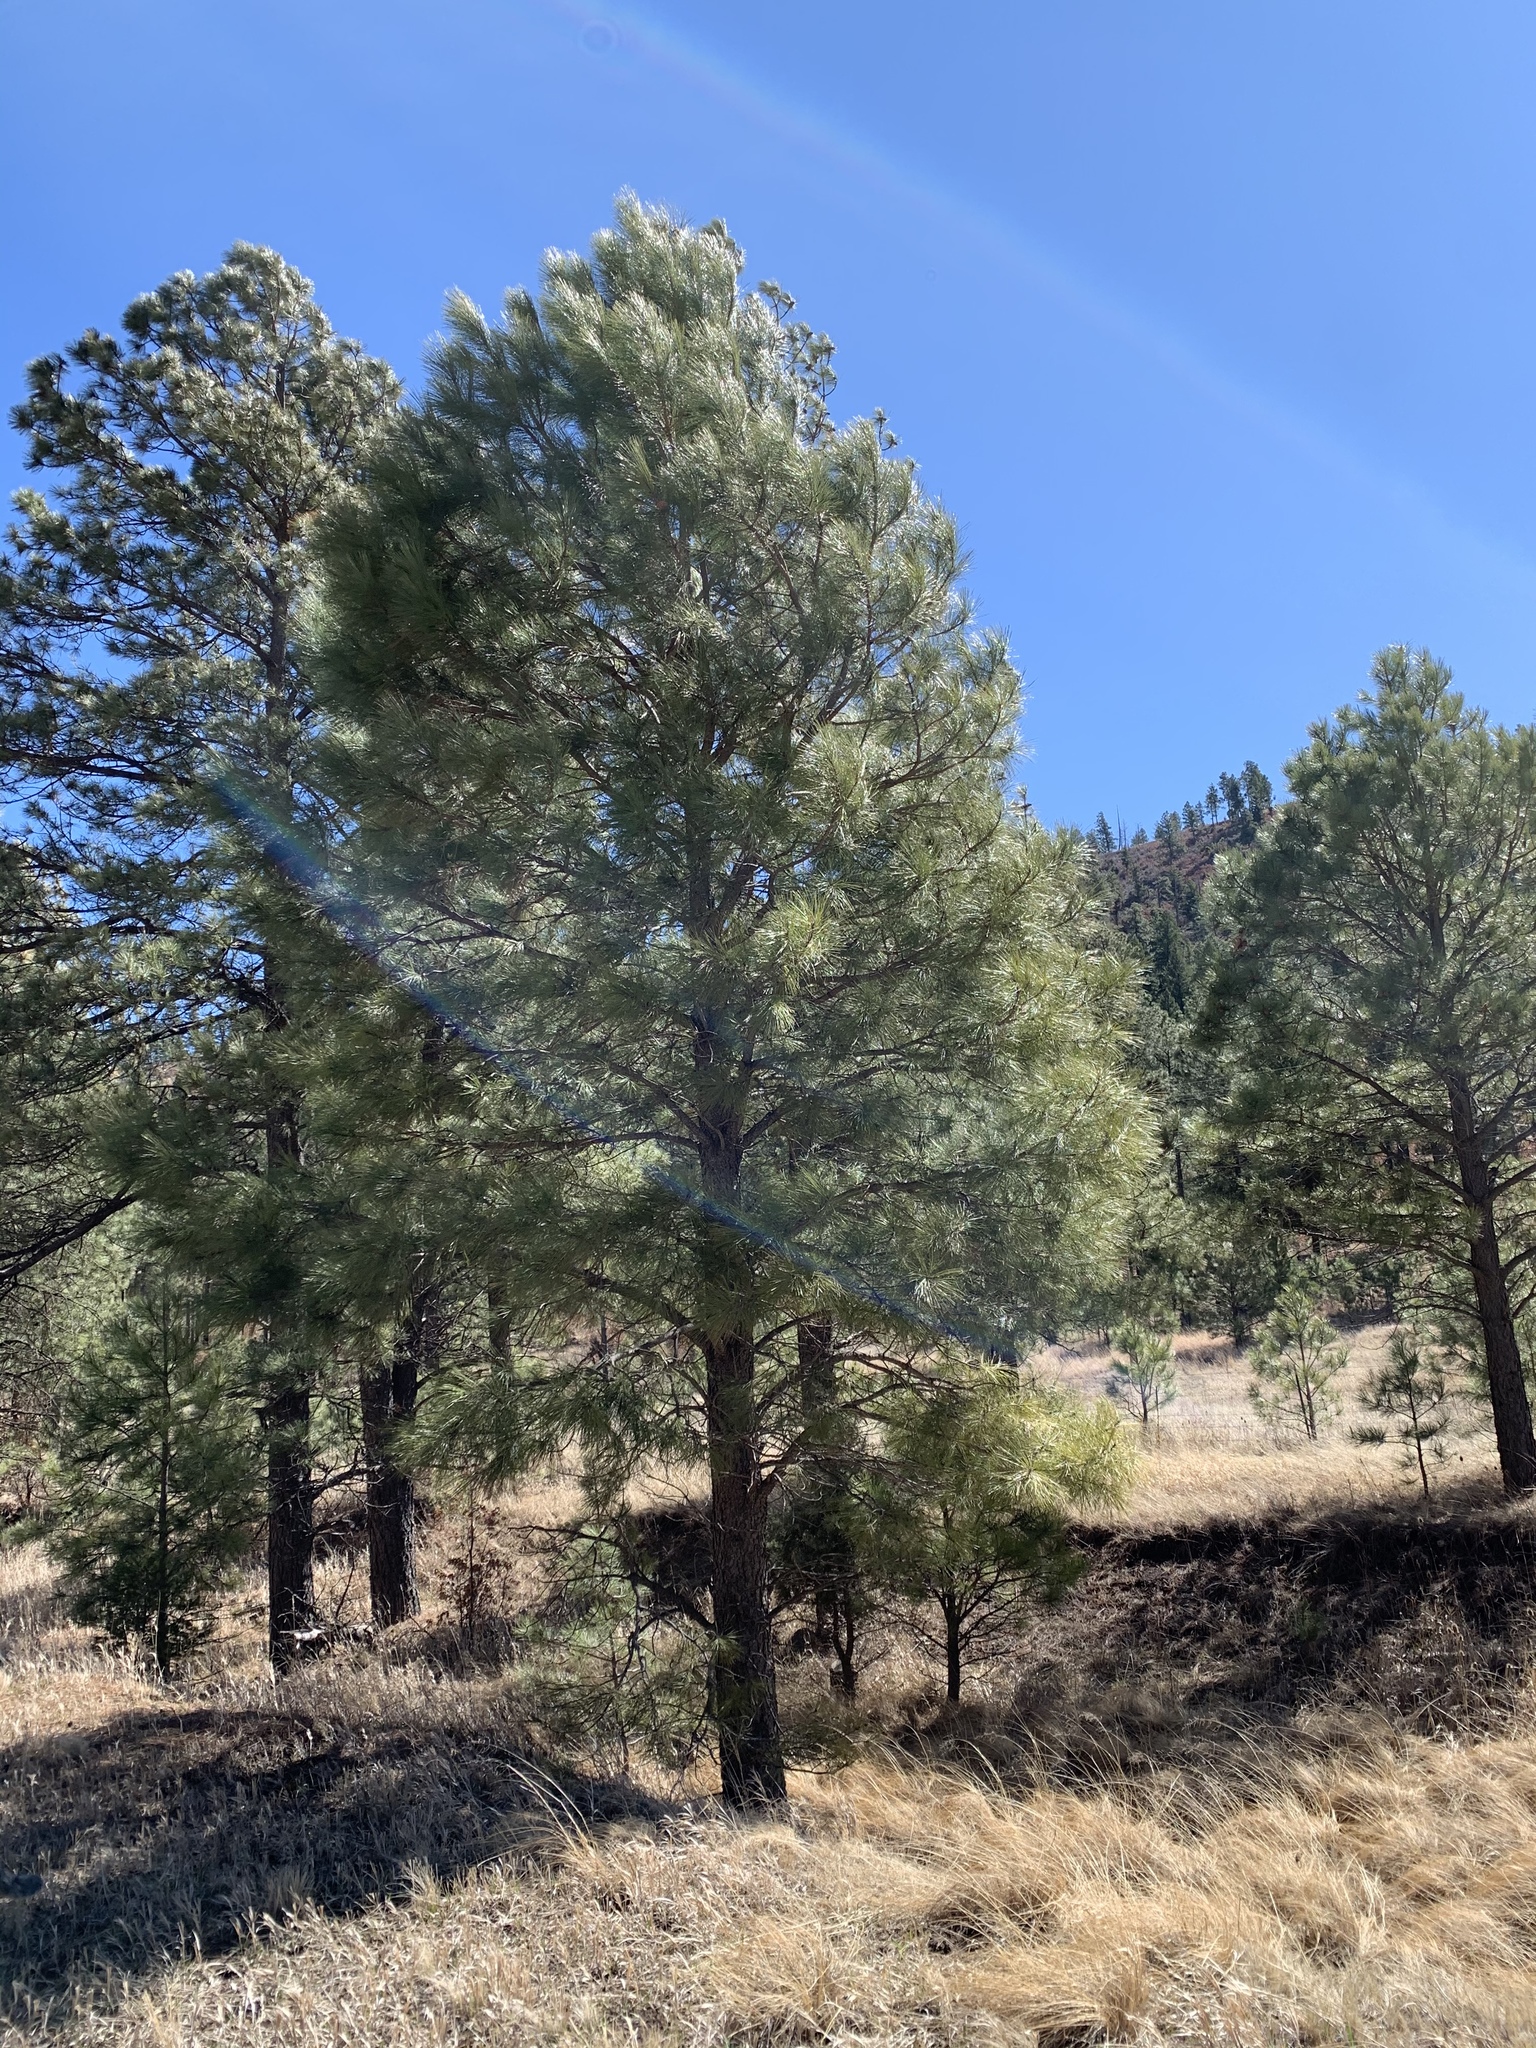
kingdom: Plantae
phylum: Tracheophyta
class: Pinopsida
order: Pinales
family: Pinaceae
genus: Pinus
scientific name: Pinus ponderosa
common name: Western yellow-pine
